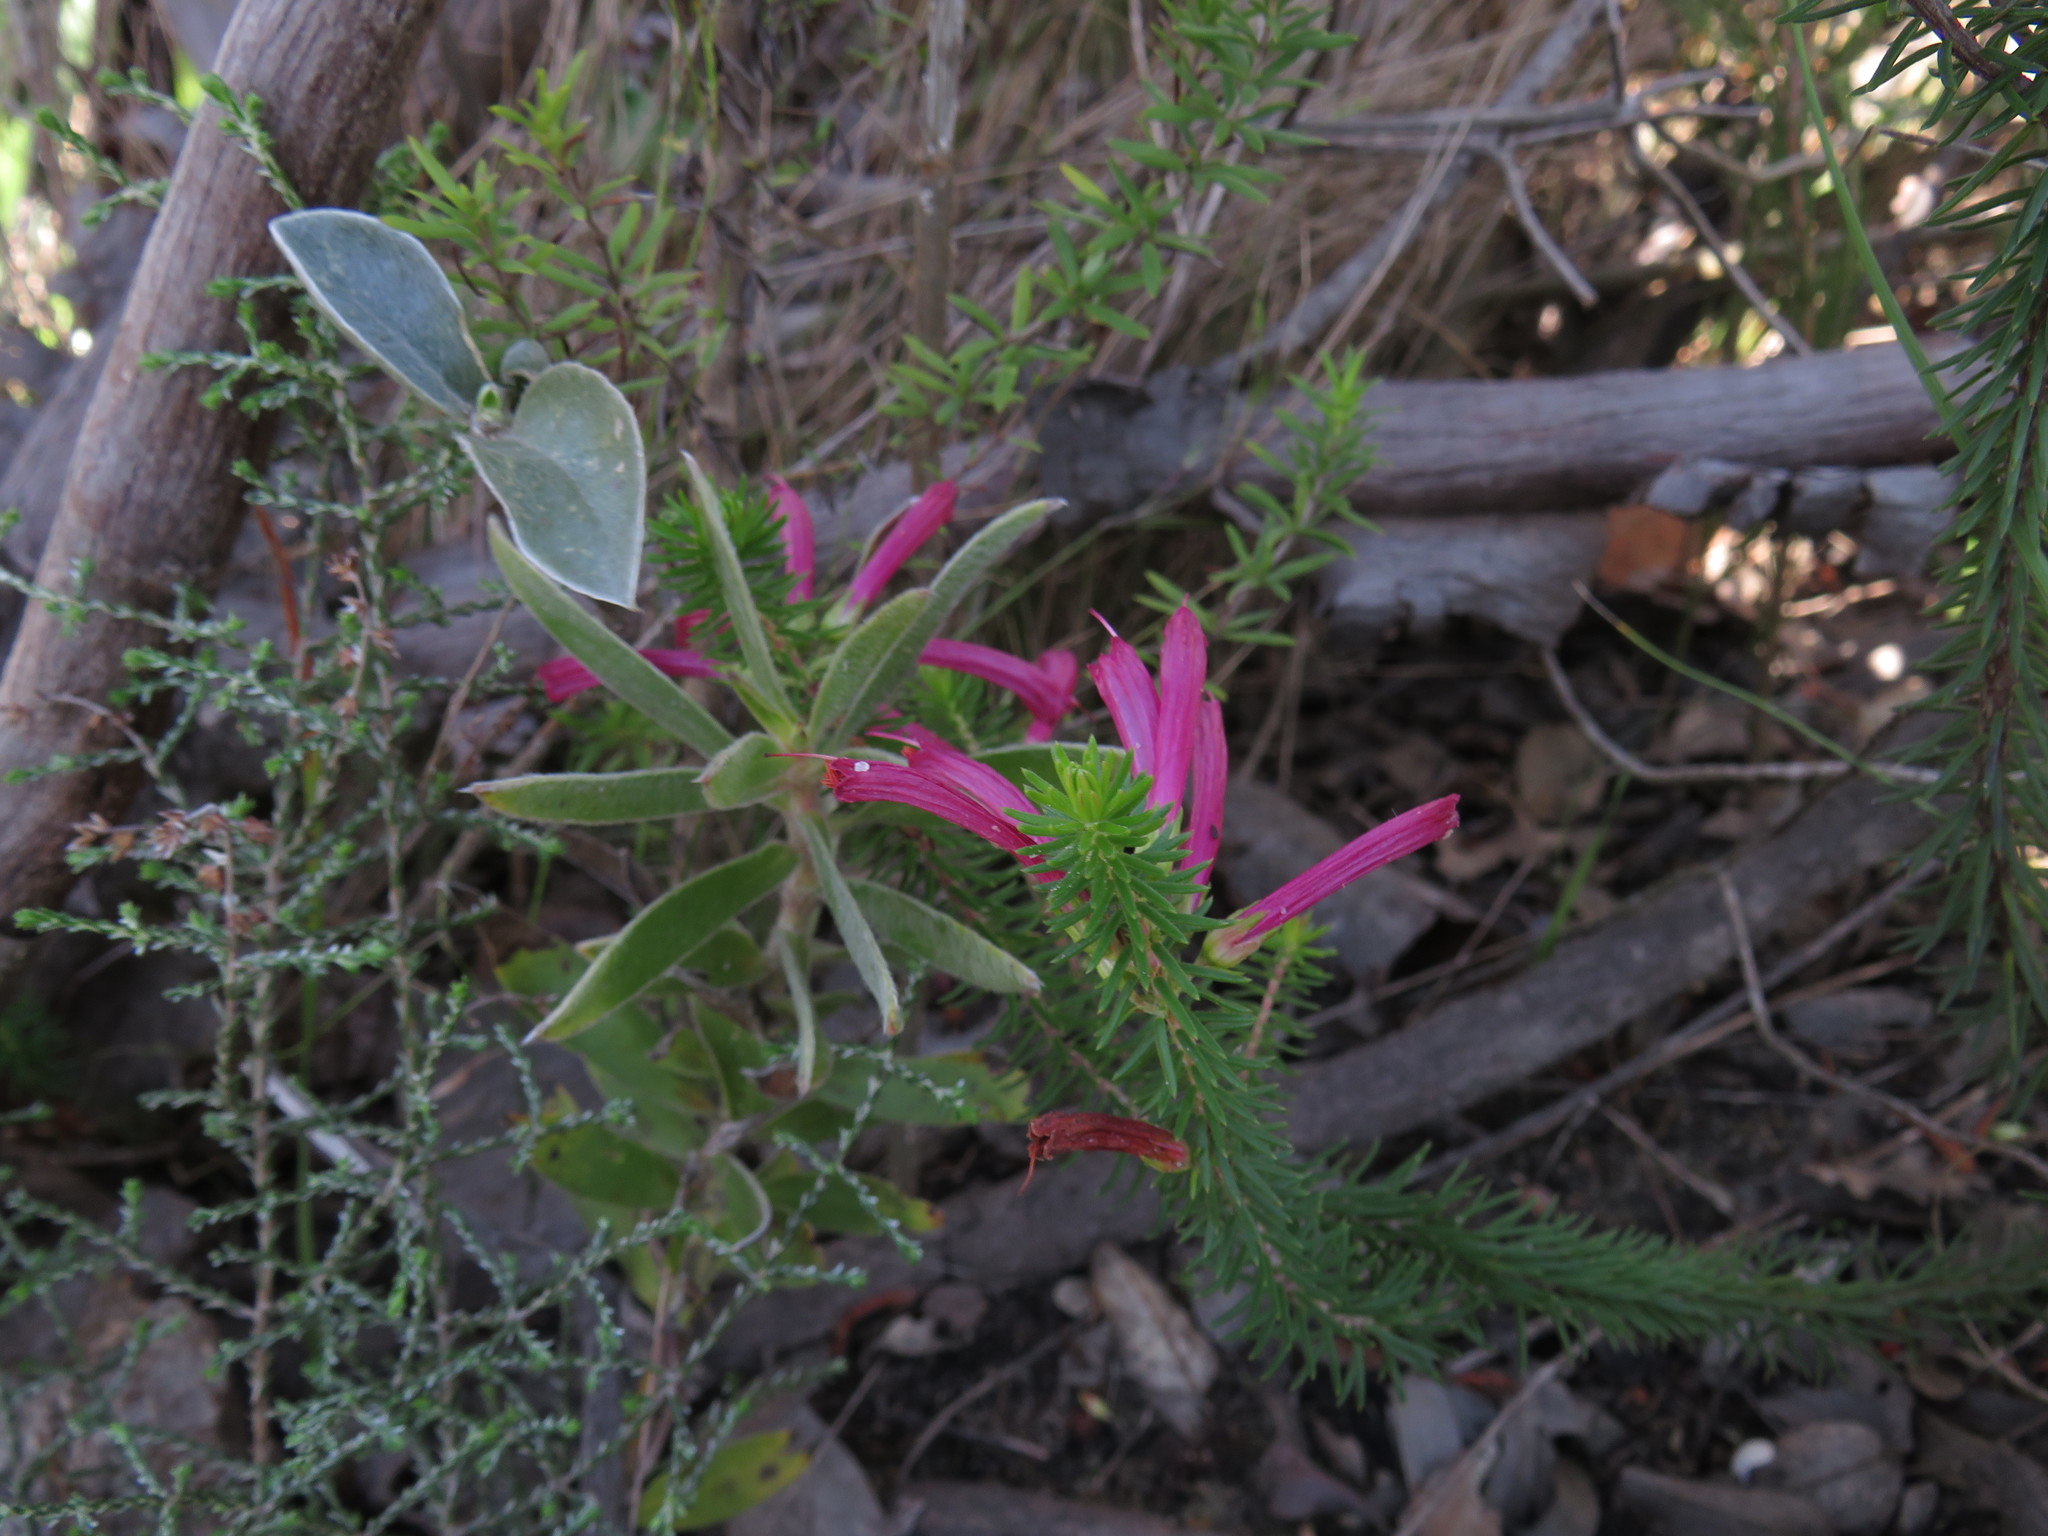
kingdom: Plantae
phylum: Tracheophyta
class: Magnoliopsida
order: Ericales
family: Ericaceae
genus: Erica
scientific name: Erica abietina
